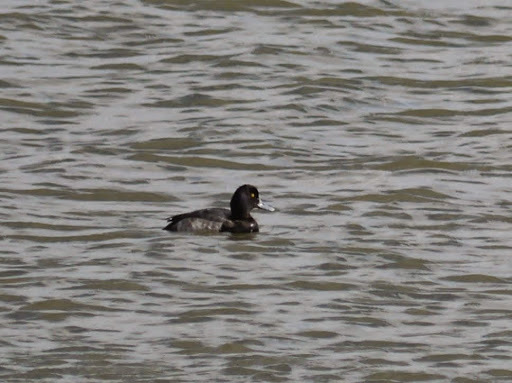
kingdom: Animalia
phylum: Chordata
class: Aves
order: Anseriformes
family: Anatidae
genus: Aythya
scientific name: Aythya
